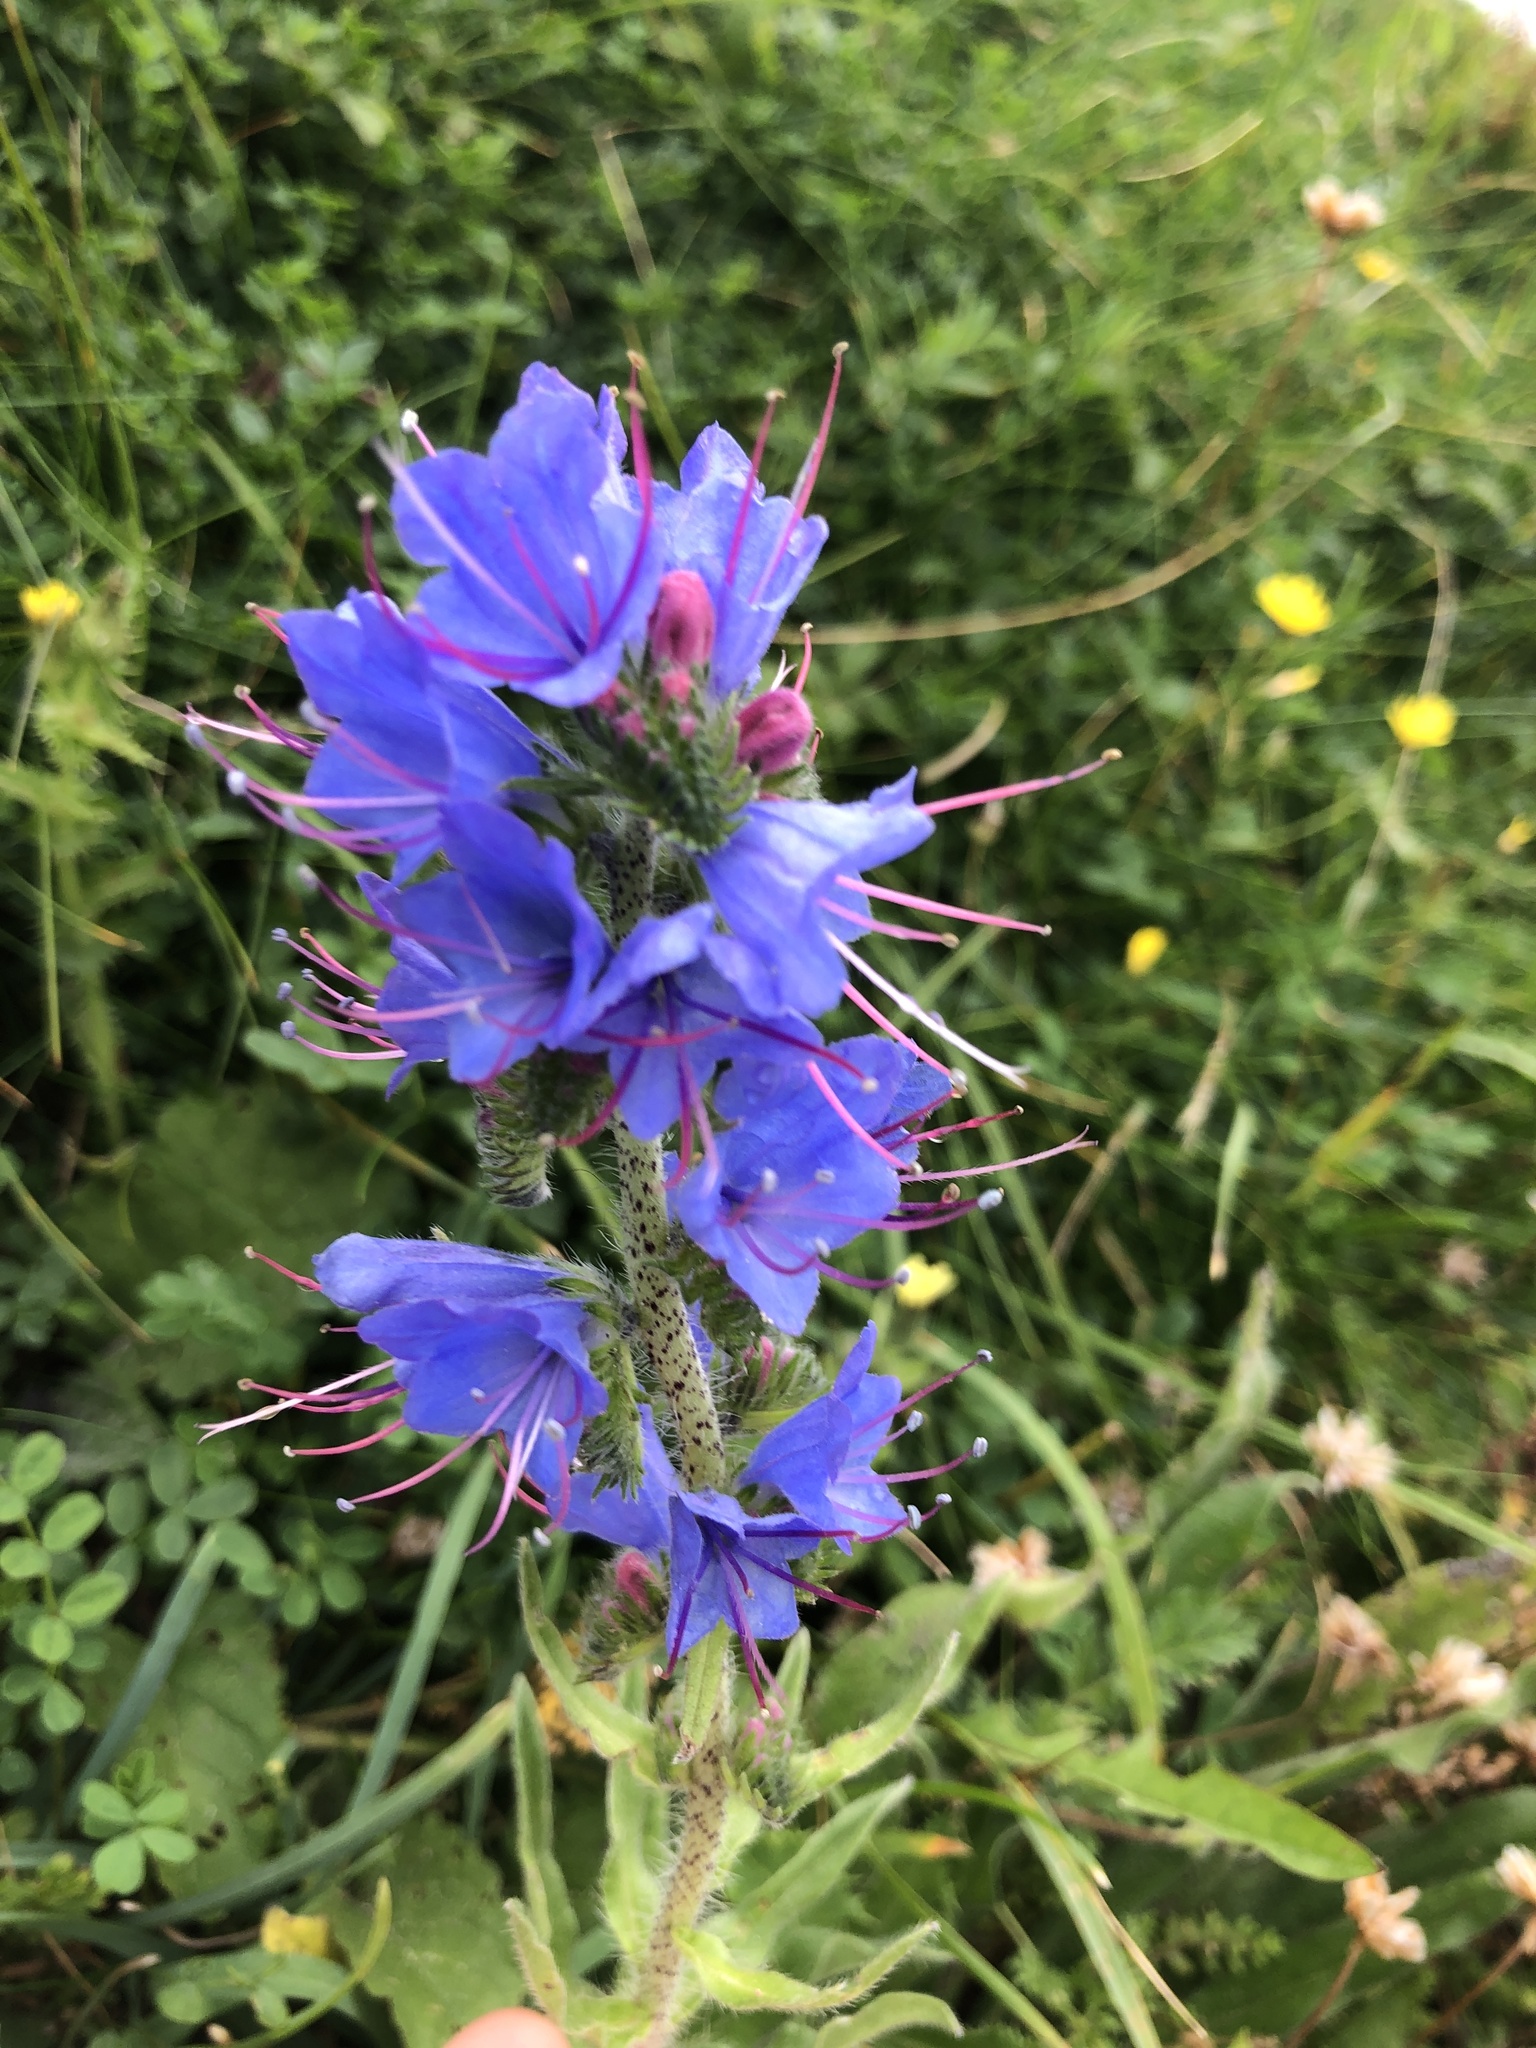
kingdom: Plantae
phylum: Tracheophyta
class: Magnoliopsida
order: Boraginales
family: Boraginaceae
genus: Echium
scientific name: Echium vulgare
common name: Common viper's bugloss
